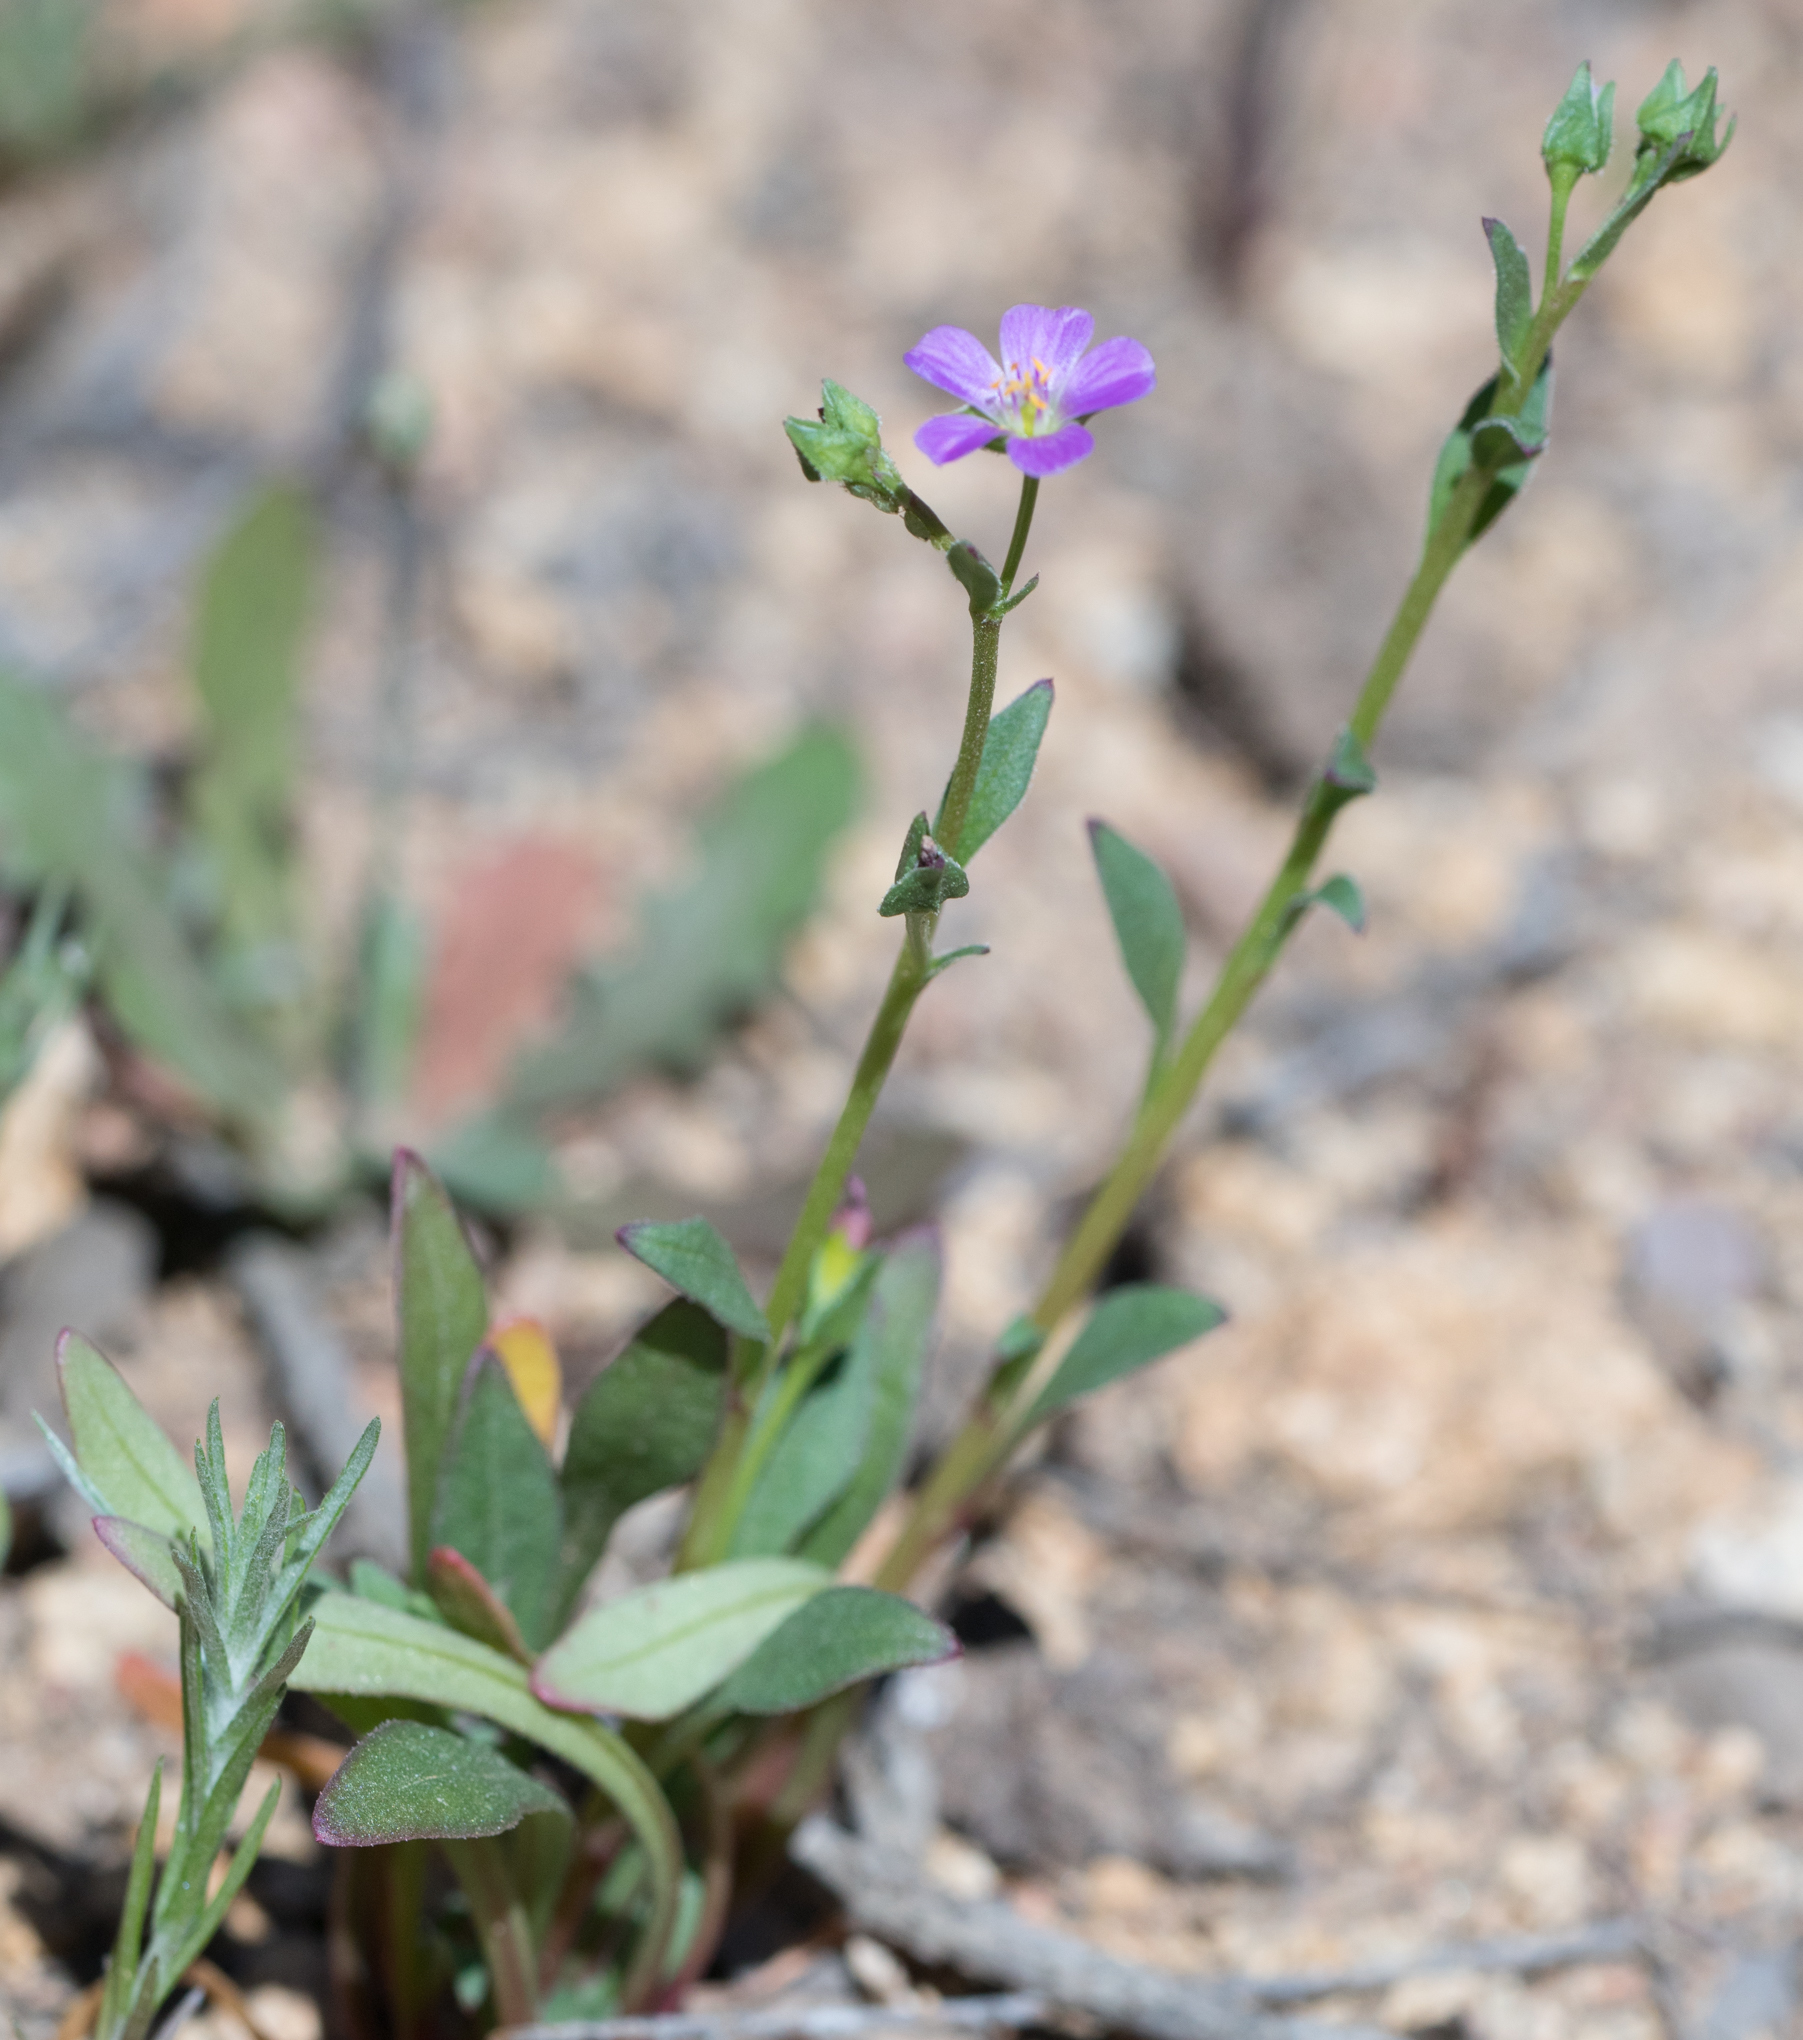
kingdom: Plantae
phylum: Tracheophyta
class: Magnoliopsida
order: Caryophyllales
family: Montiaceae
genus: Calandrinia
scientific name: Calandrinia breweri
